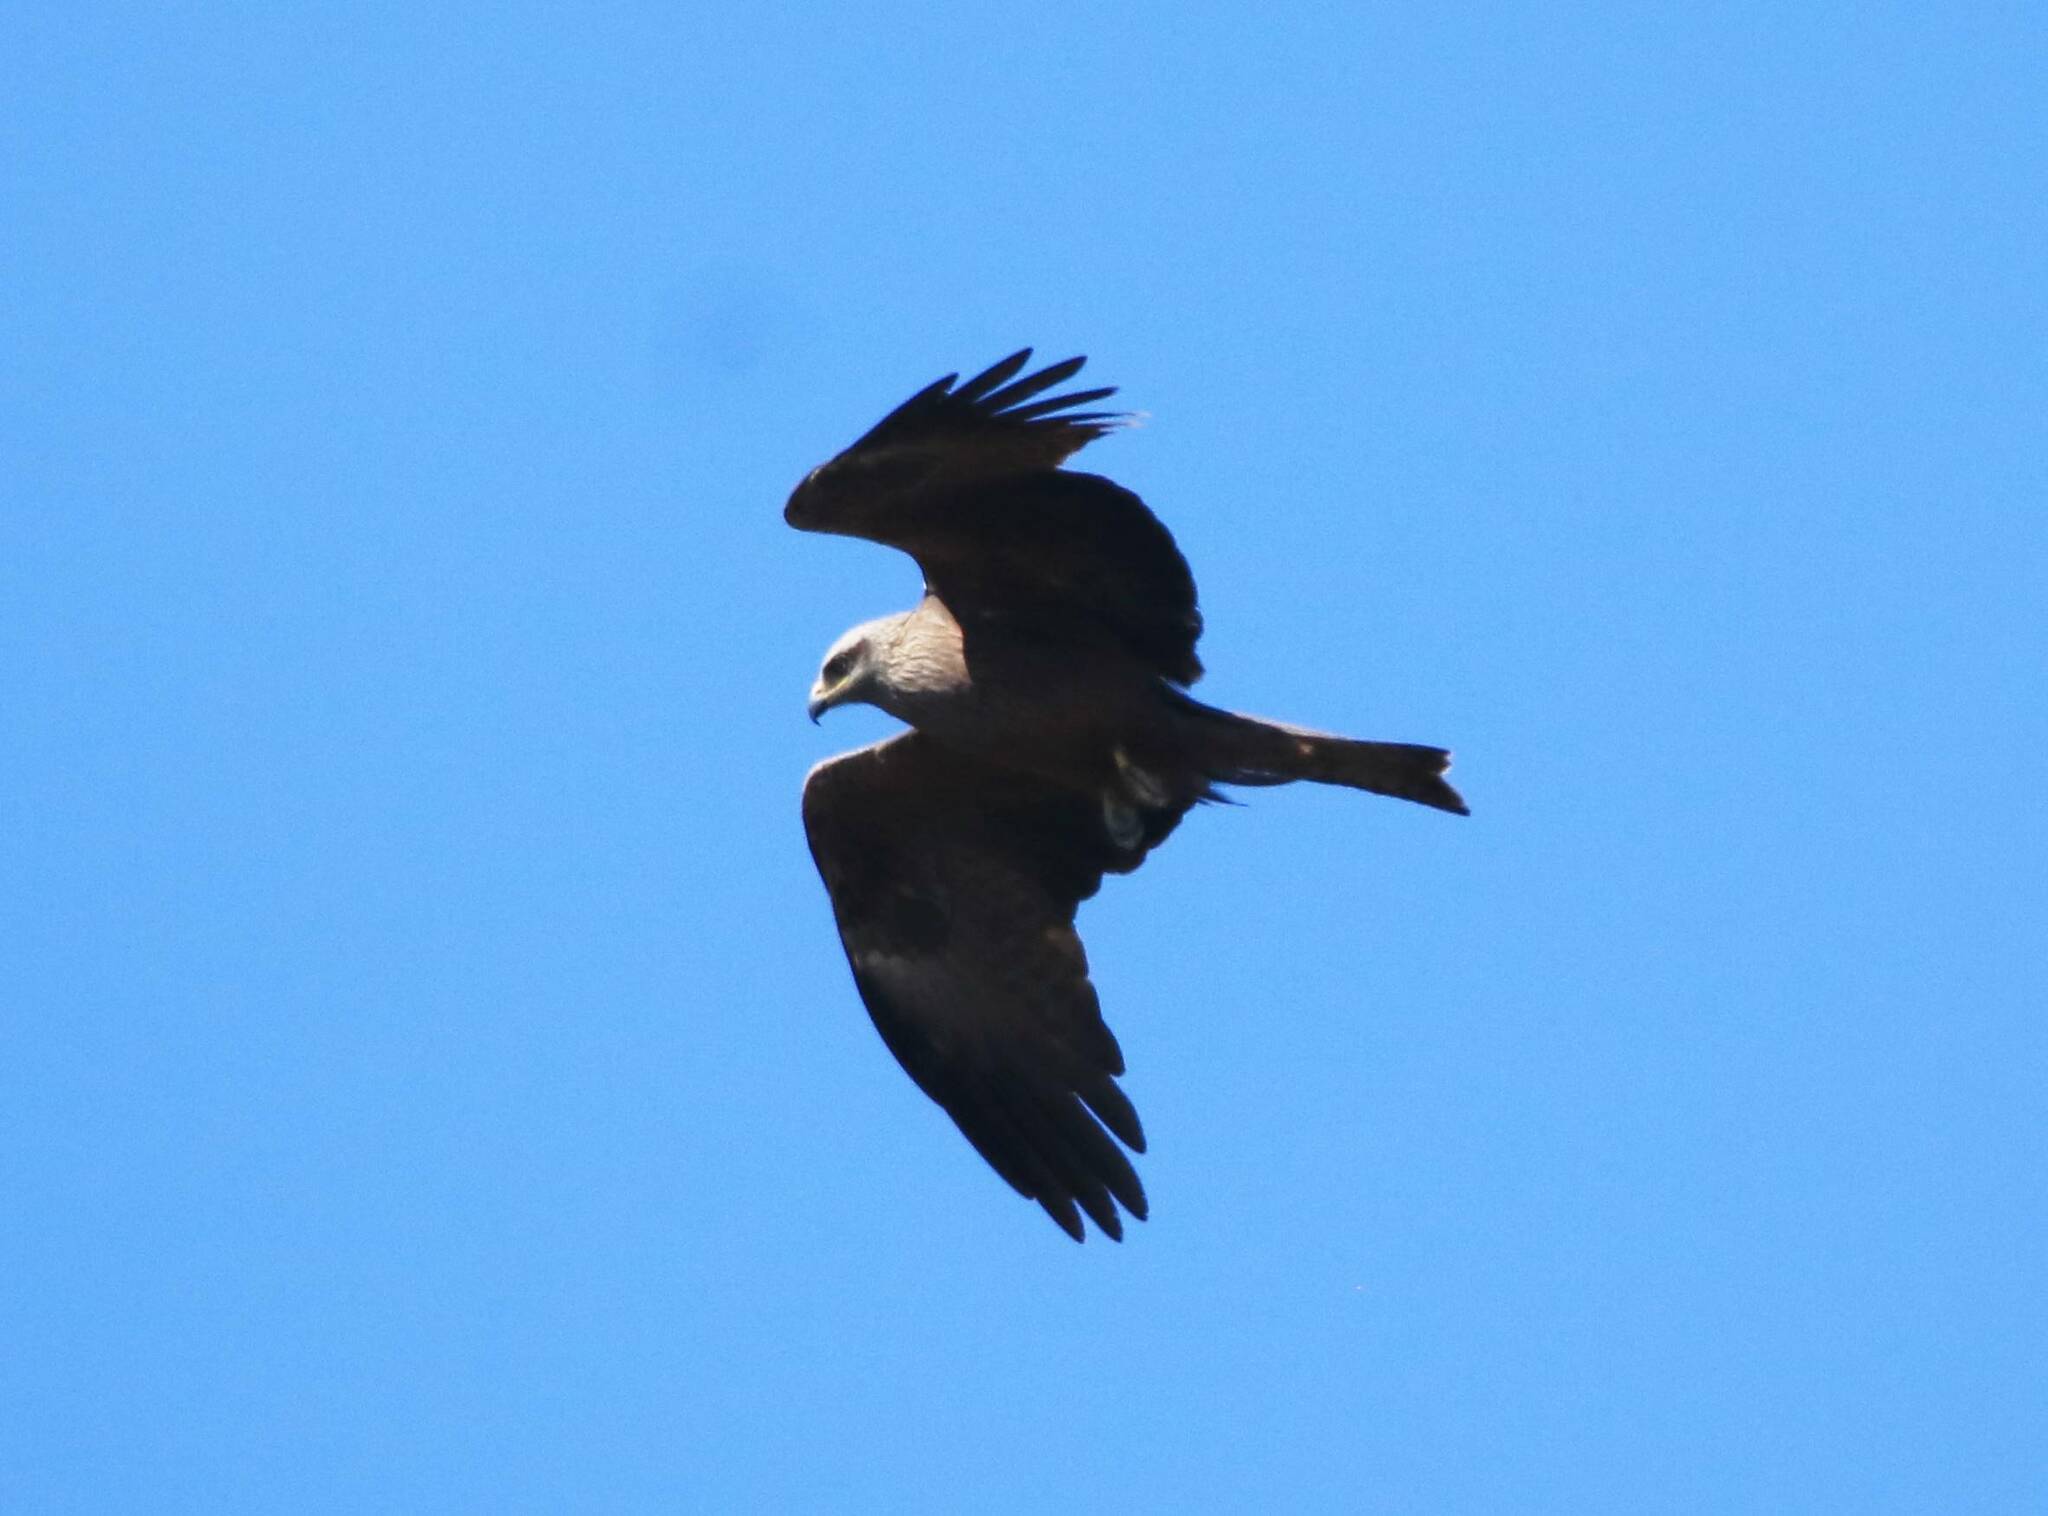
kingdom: Animalia
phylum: Chordata
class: Aves
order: Accipitriformes
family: Accipitridae
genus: Milvus
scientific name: Milvus migrans
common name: Black kite
